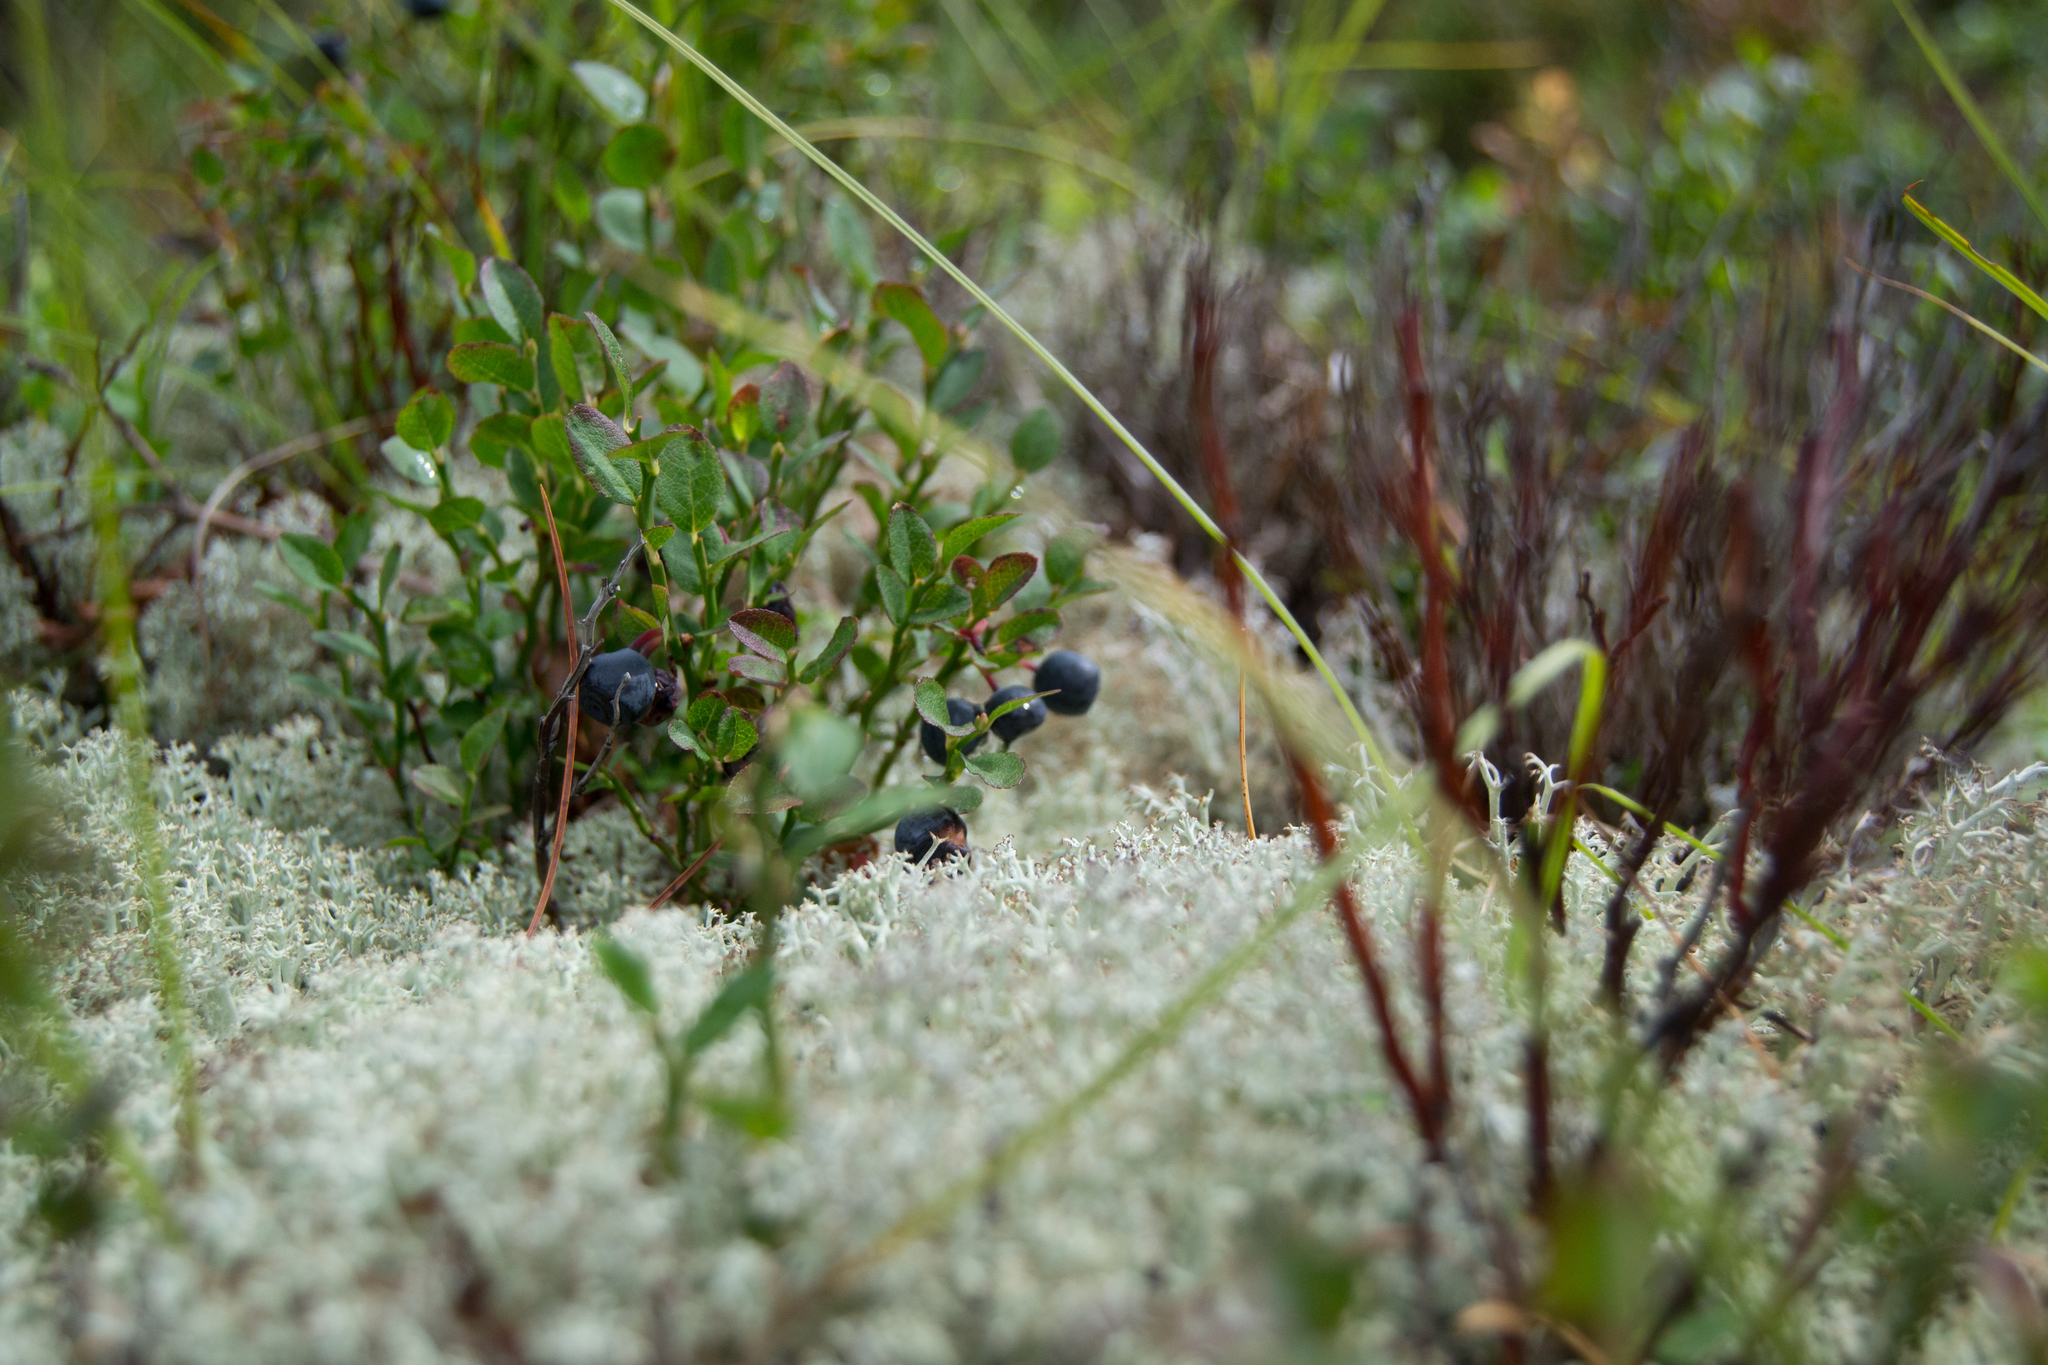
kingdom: Plantae
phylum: Tracheophyta
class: Magnoliopsida
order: Ericales
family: Ericaceae
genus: Vaccinium
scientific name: Vaccinium myrtillus
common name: Bilberry
